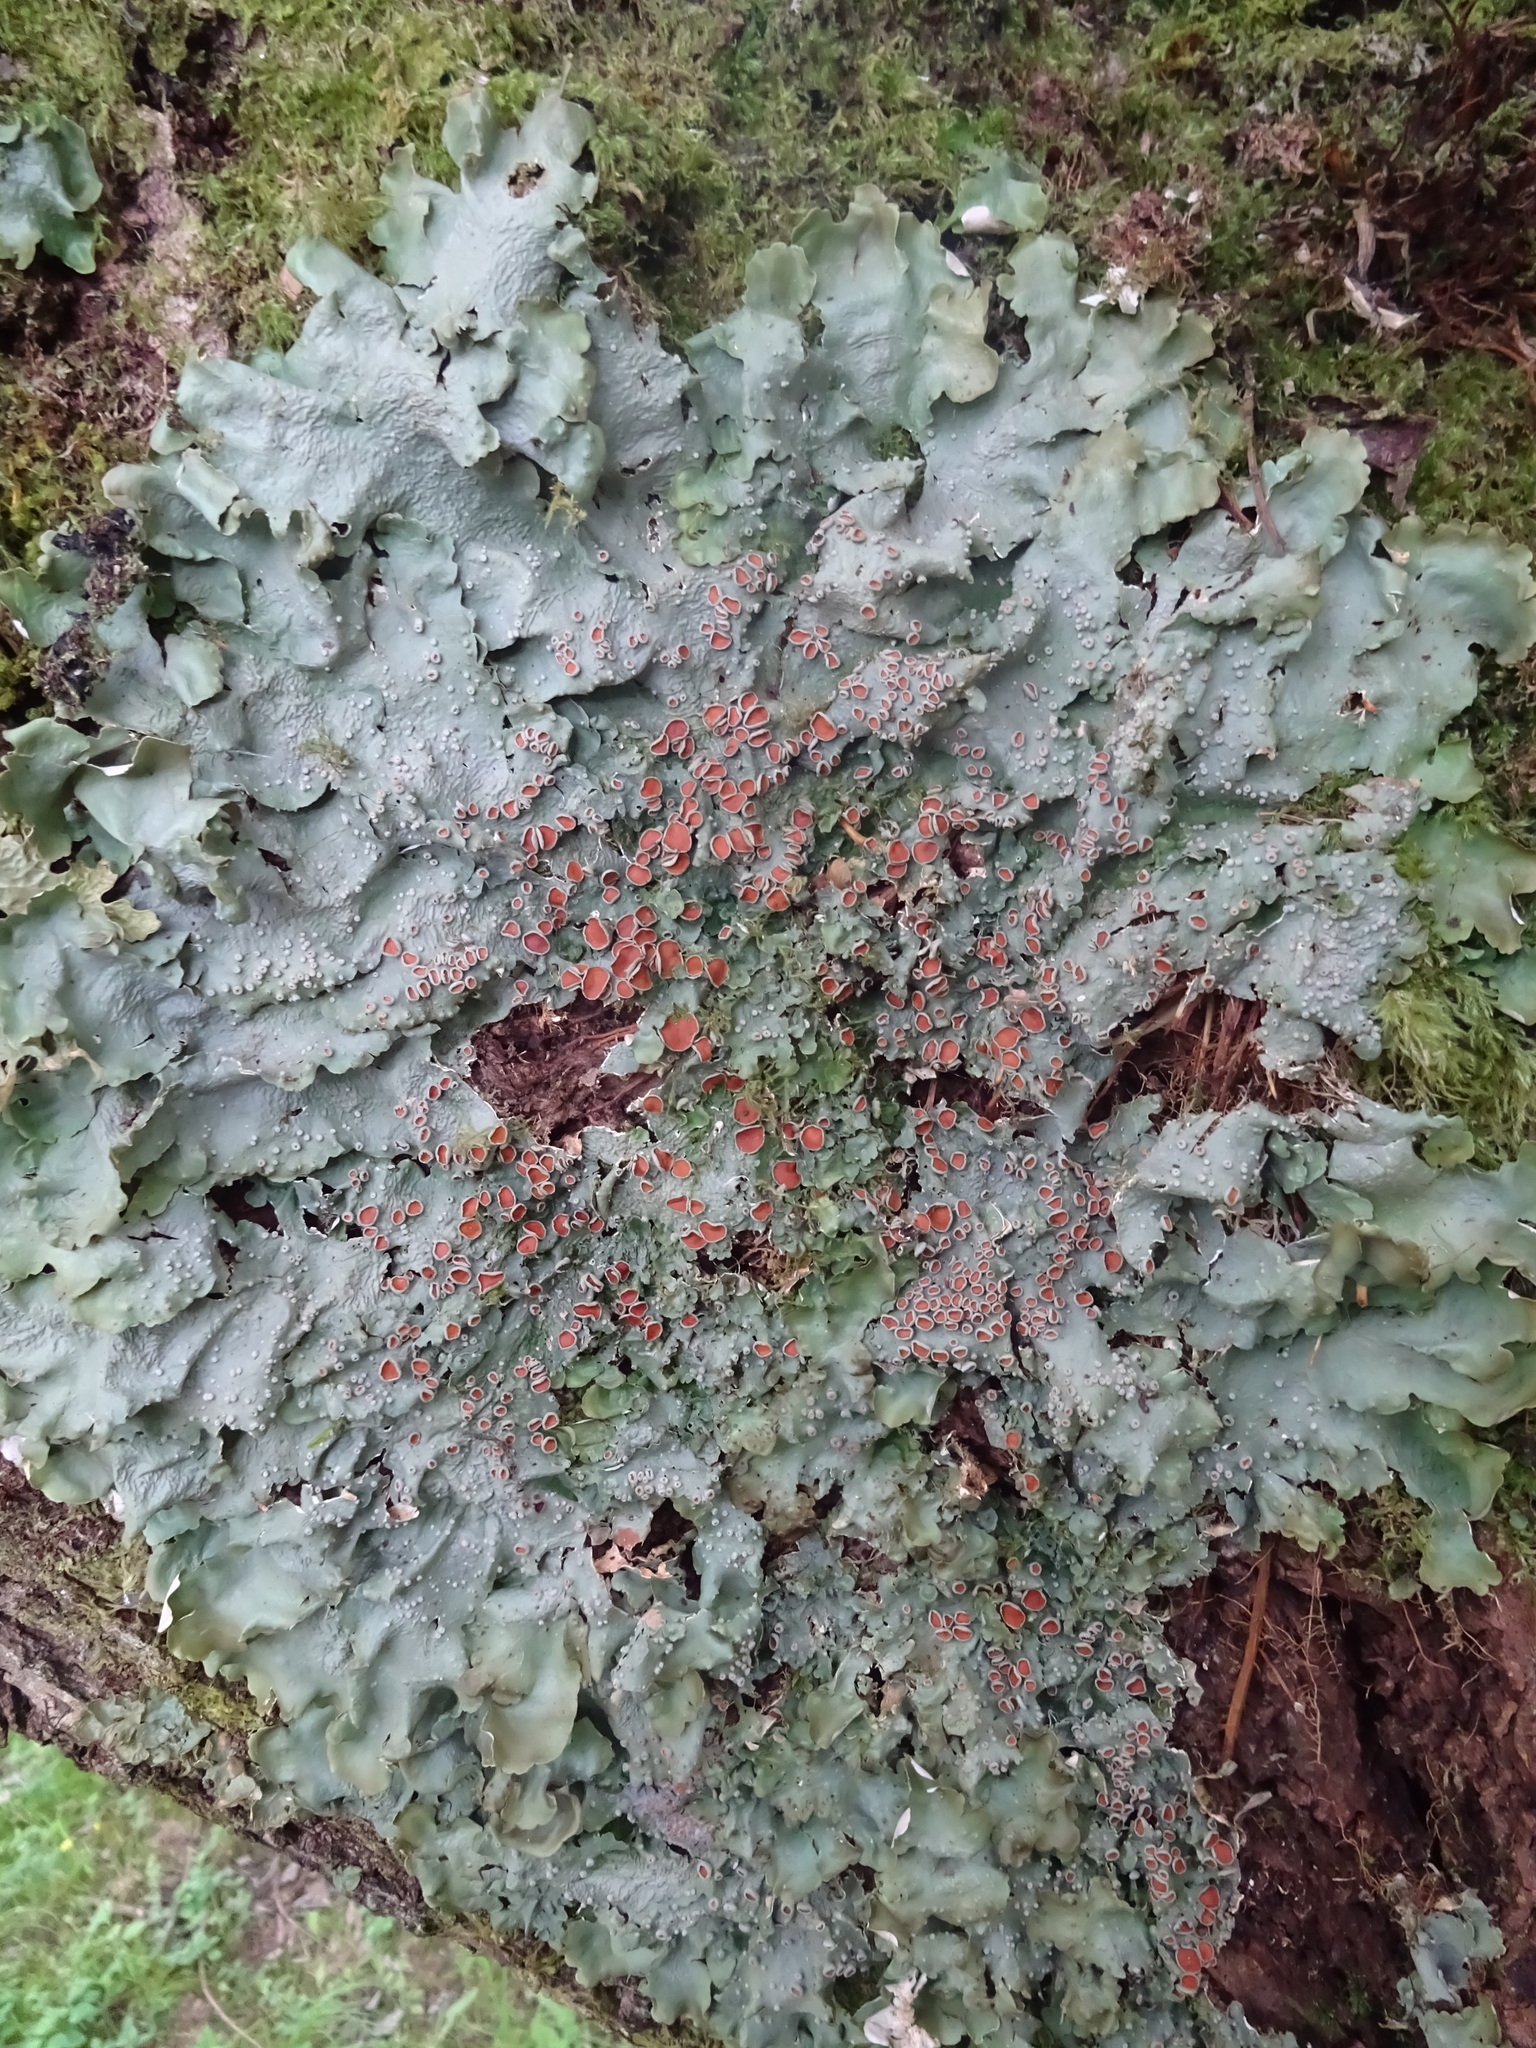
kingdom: Fungi
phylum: Ascomycota
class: Lecanoromycetes
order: Peltigerales
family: Lobariaceae
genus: Ricasolia
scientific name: Ricasolia amplissima
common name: Giant candlewax lichen
